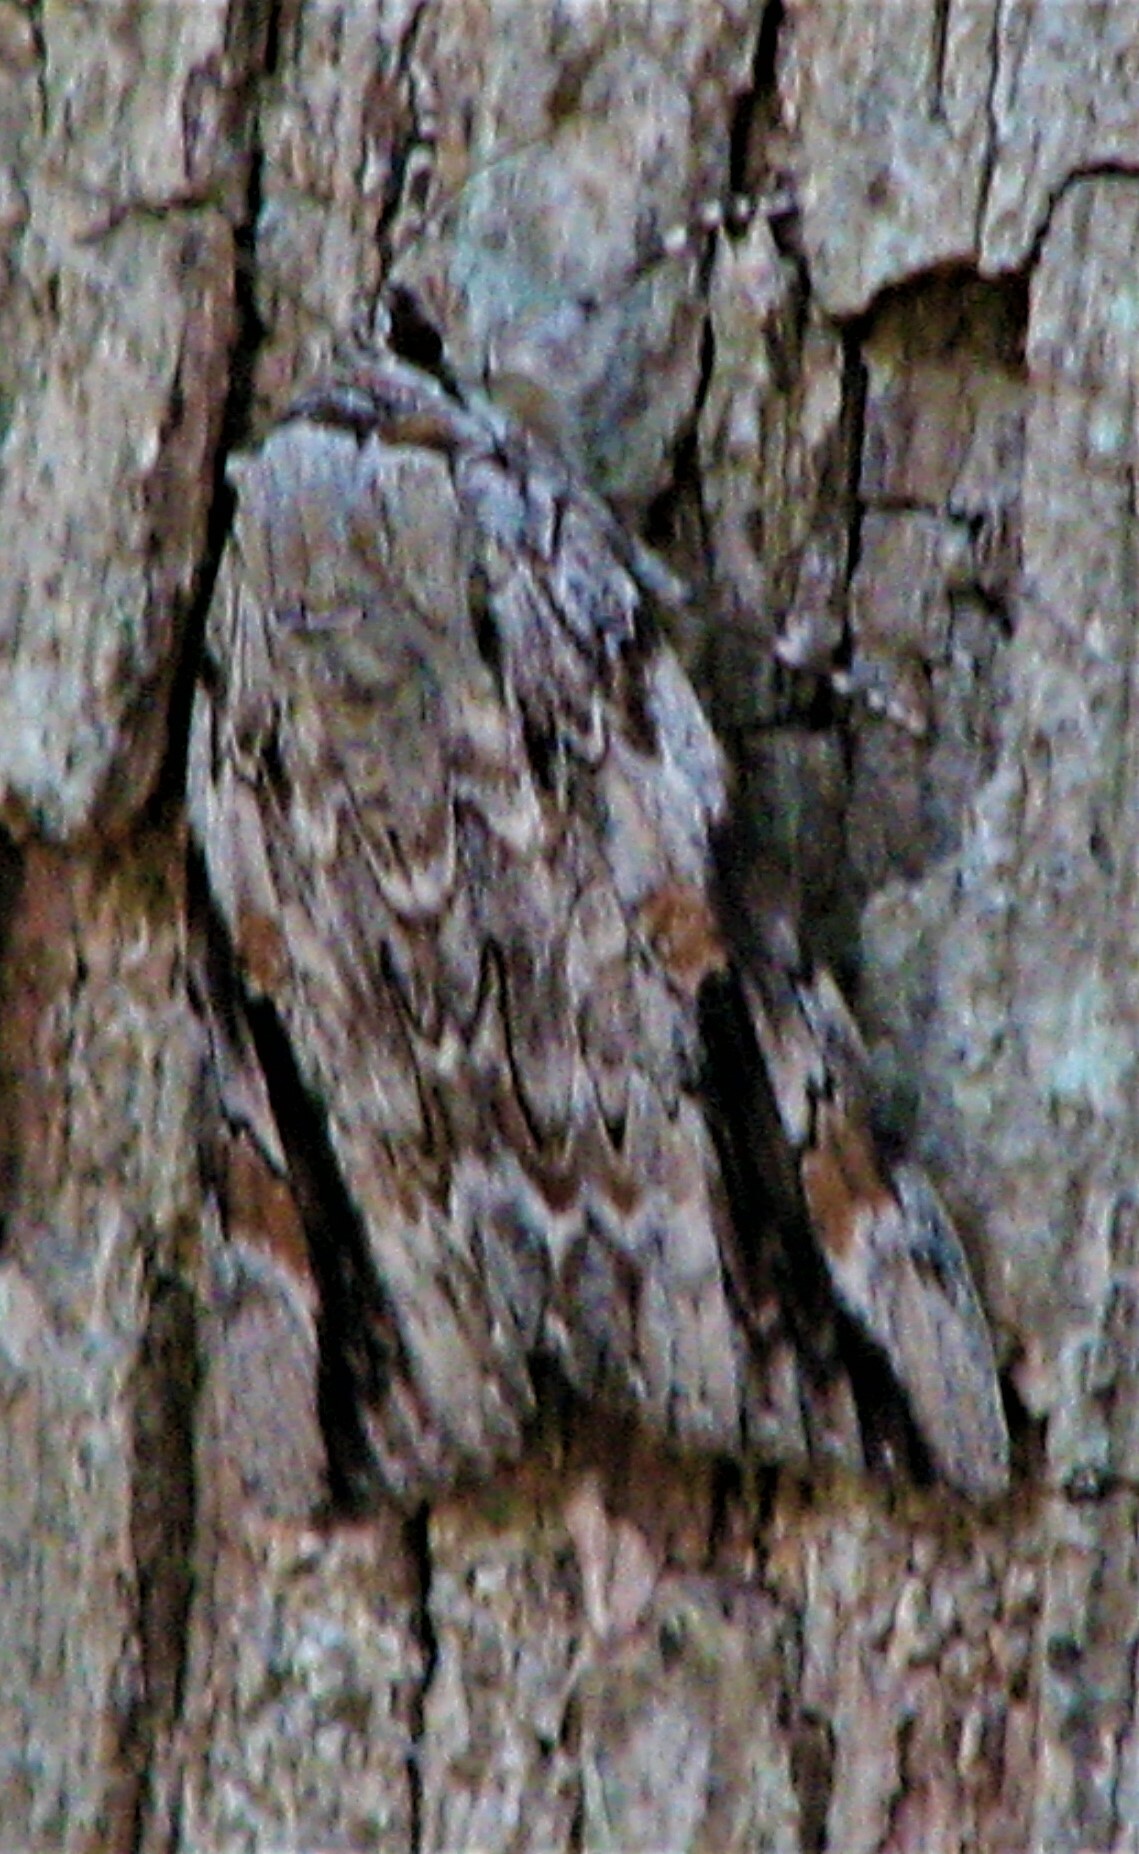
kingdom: Animalia
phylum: Arthropoda
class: Insecta
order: Lepidoptera
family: Erebidae
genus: Catocala
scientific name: Catocala maestosa
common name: Sad underwing
